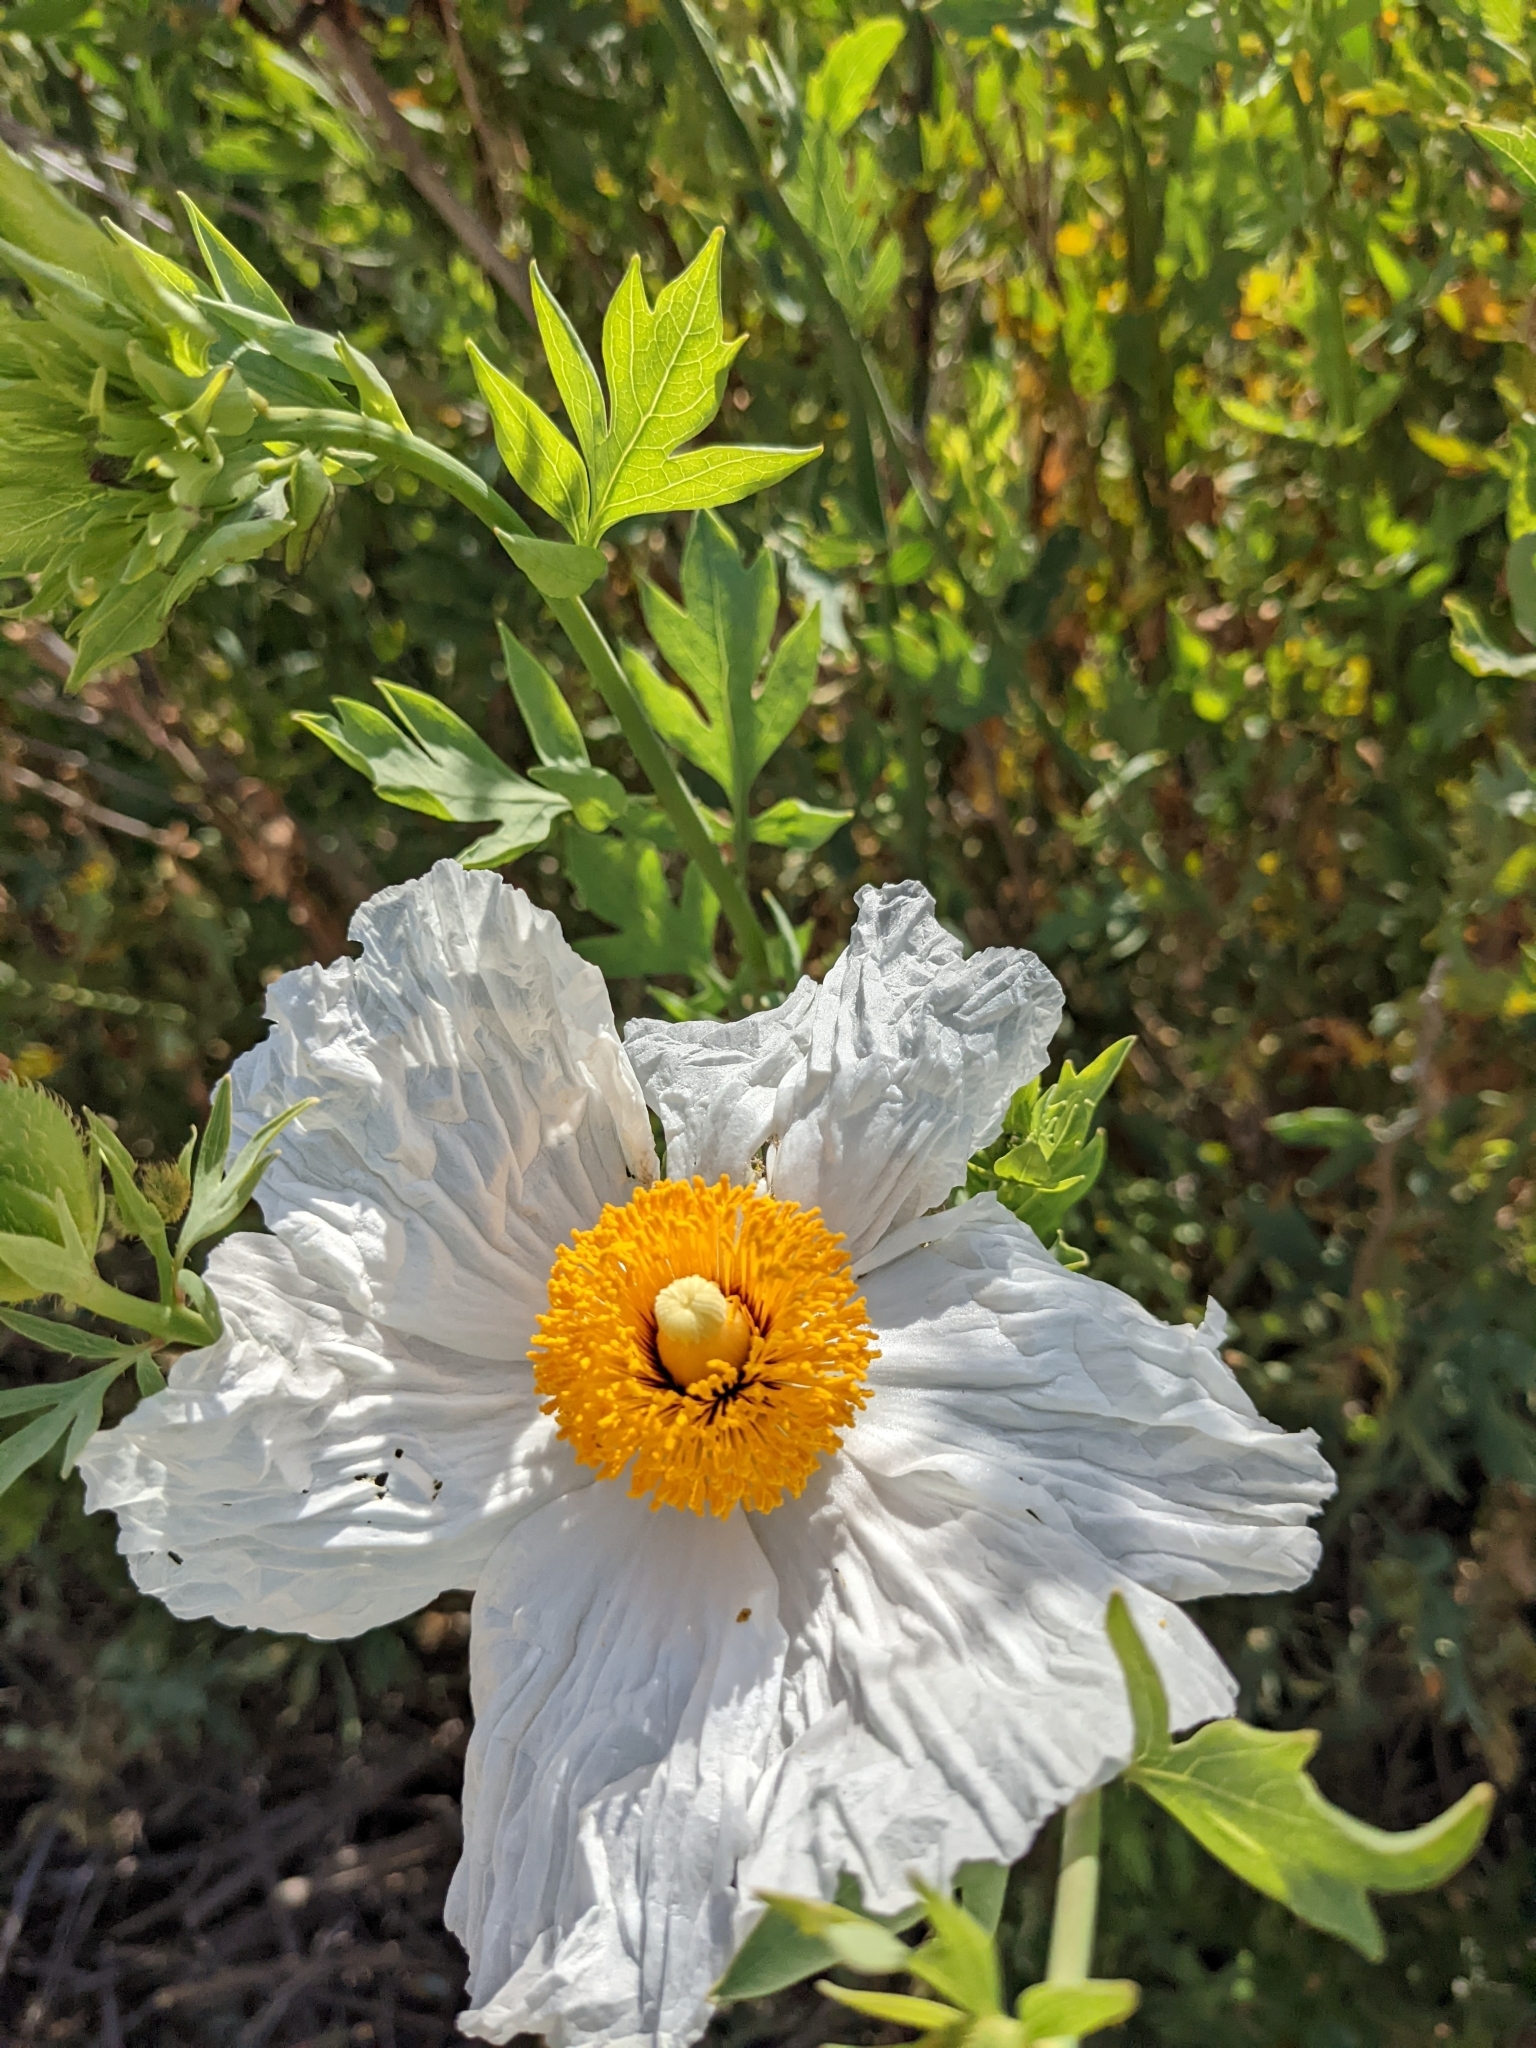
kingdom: Plantae
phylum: Tracheophyta
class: Magnoliopsida
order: Ranunculales
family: Papaveraceae
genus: Romneya
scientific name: Romneya trichocalyx
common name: Hairy matilija-poppy
